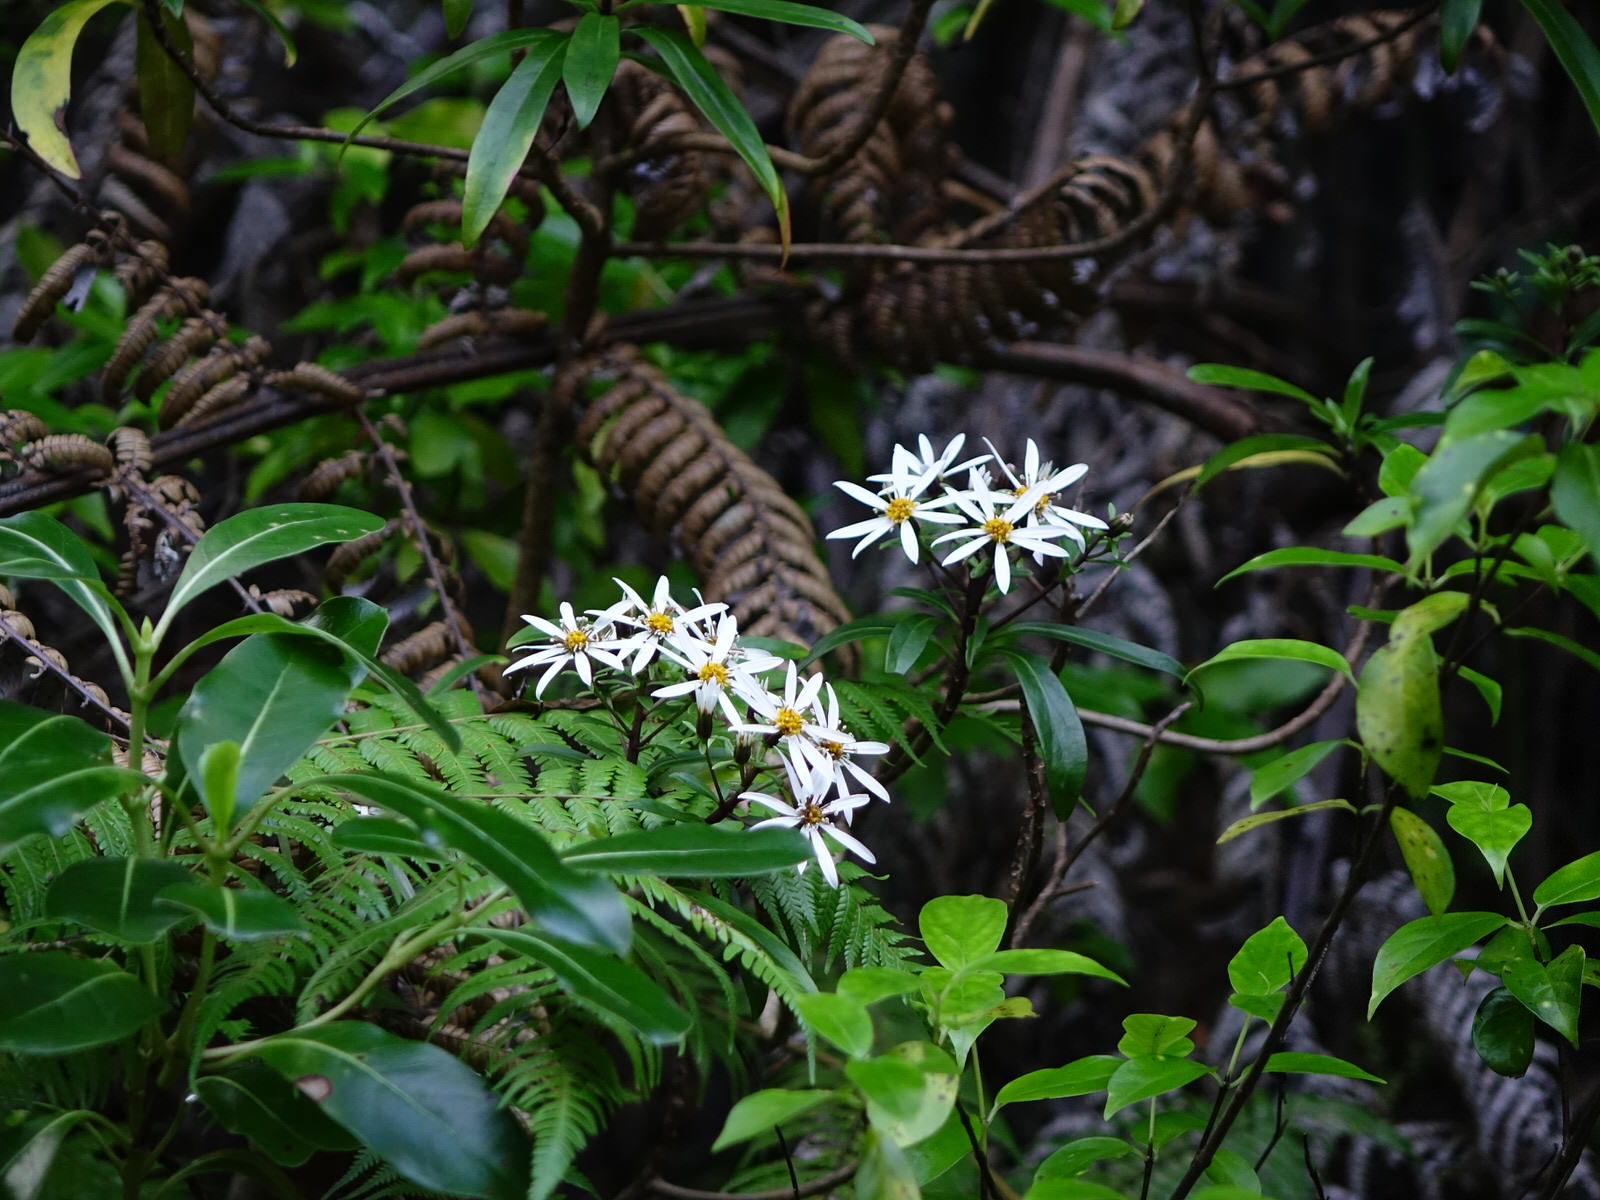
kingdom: Plantae
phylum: Tracheophyta
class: Magnoliopsida
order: Asterales
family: Asteraceae
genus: Brachyglottis
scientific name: Brachyglottis kirkii
